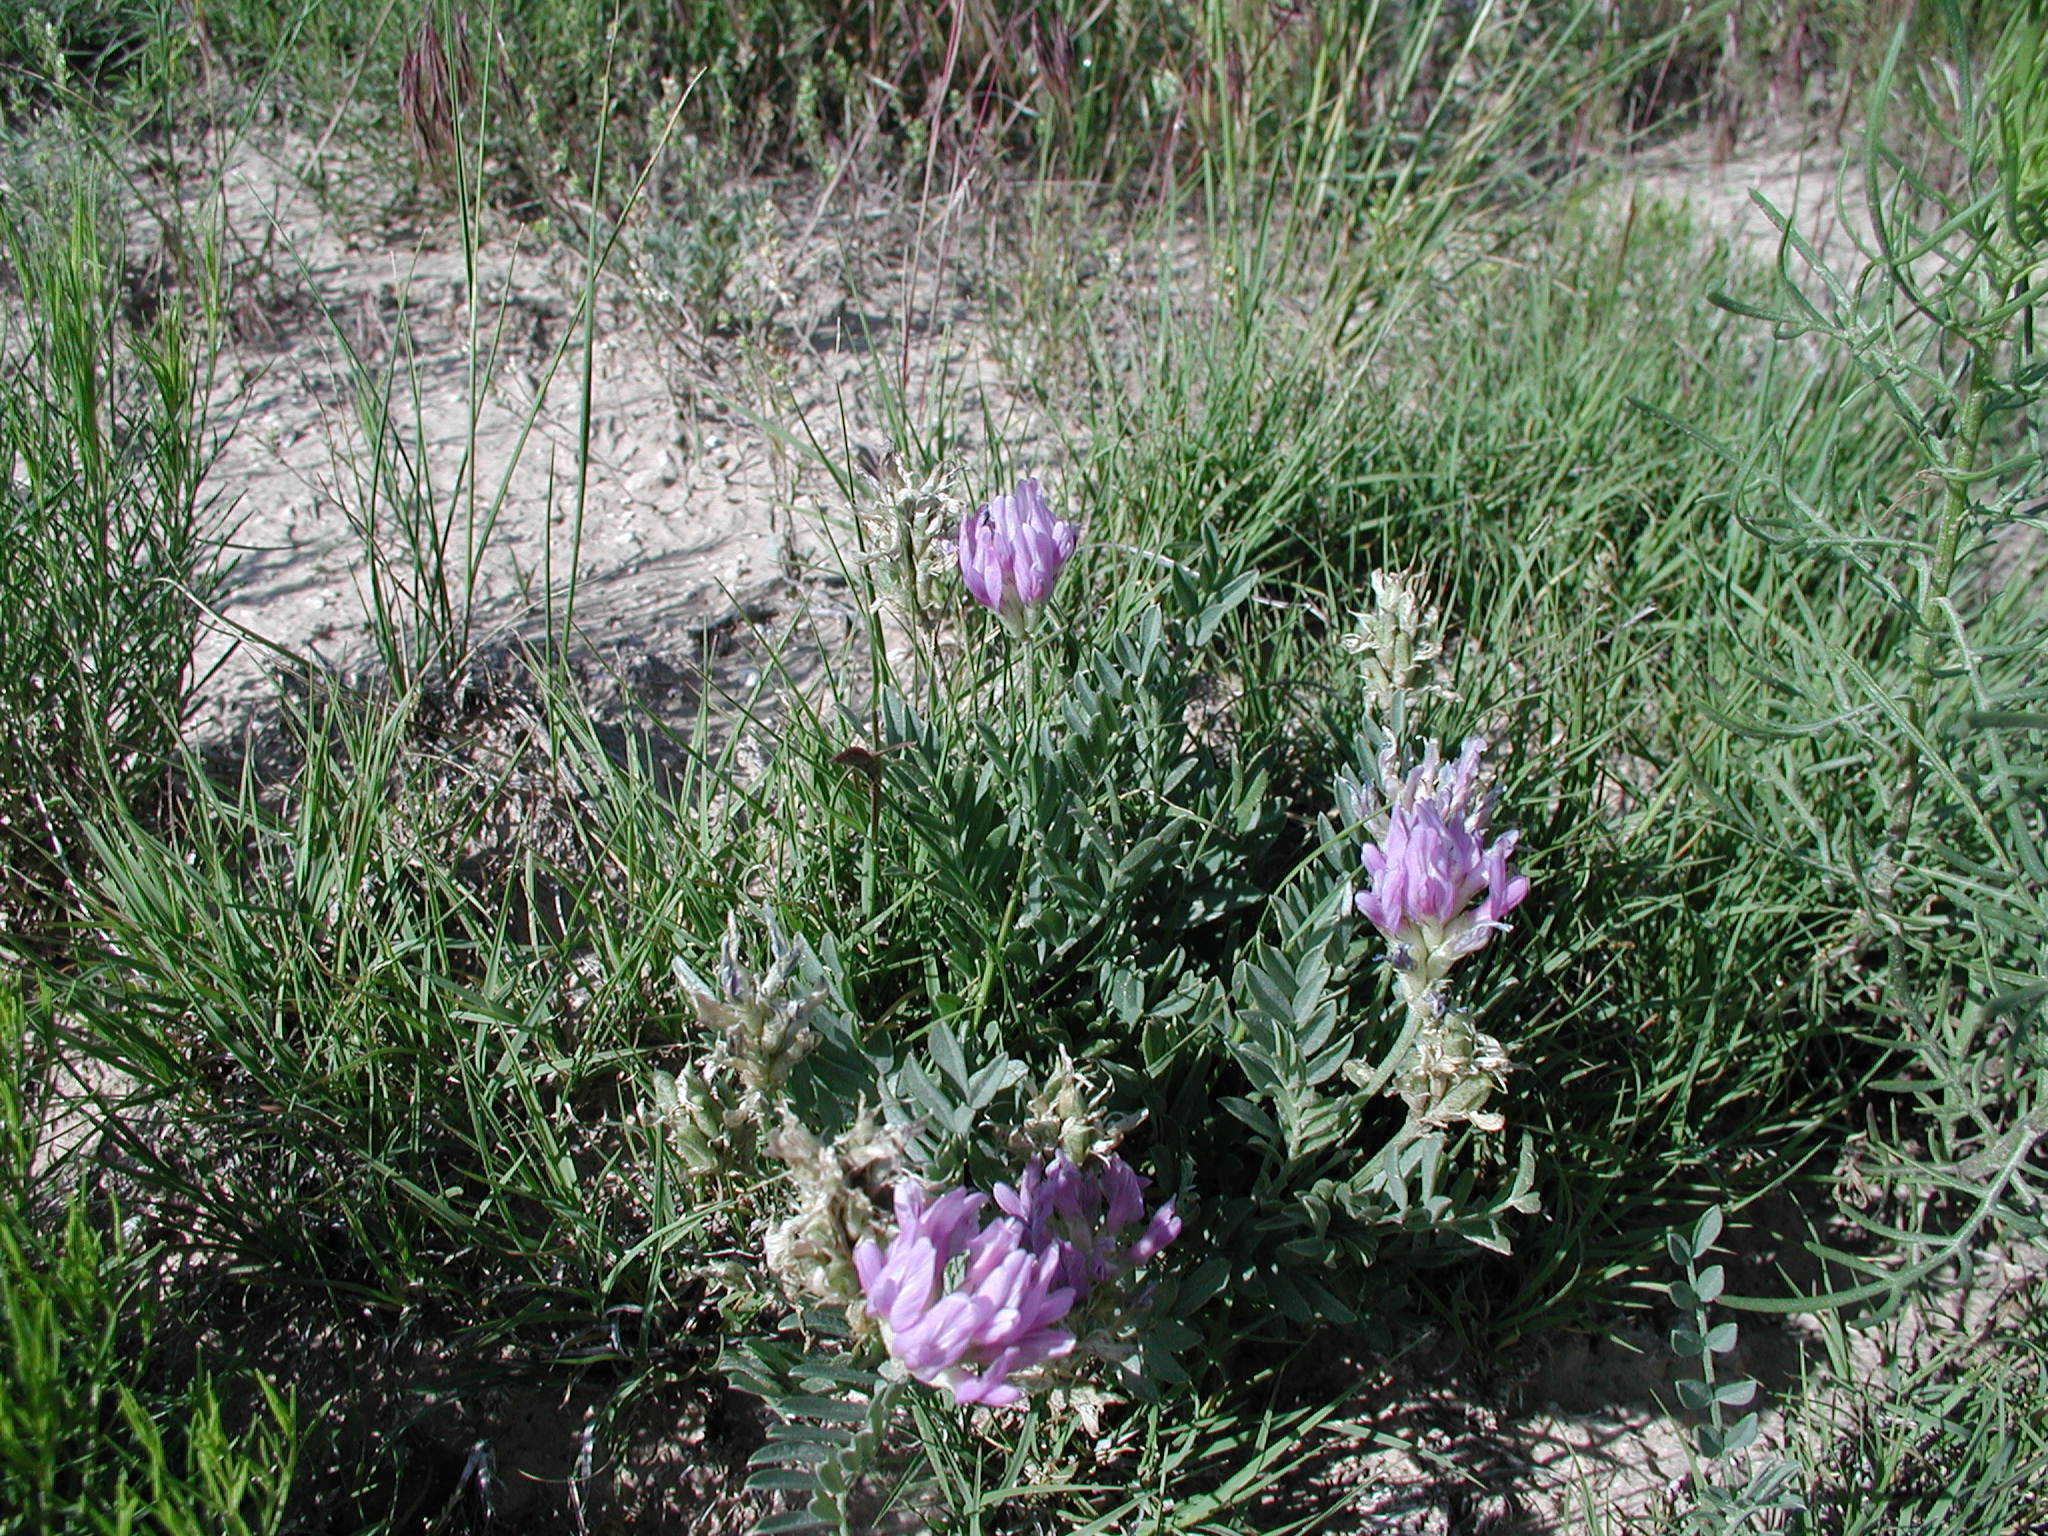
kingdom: Plantae
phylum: Tracheophyta
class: Magnoliopsida
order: Fabales
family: Fabaceae
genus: Oxytropis
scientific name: Oxytropis lambertii
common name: Purple locoweed
